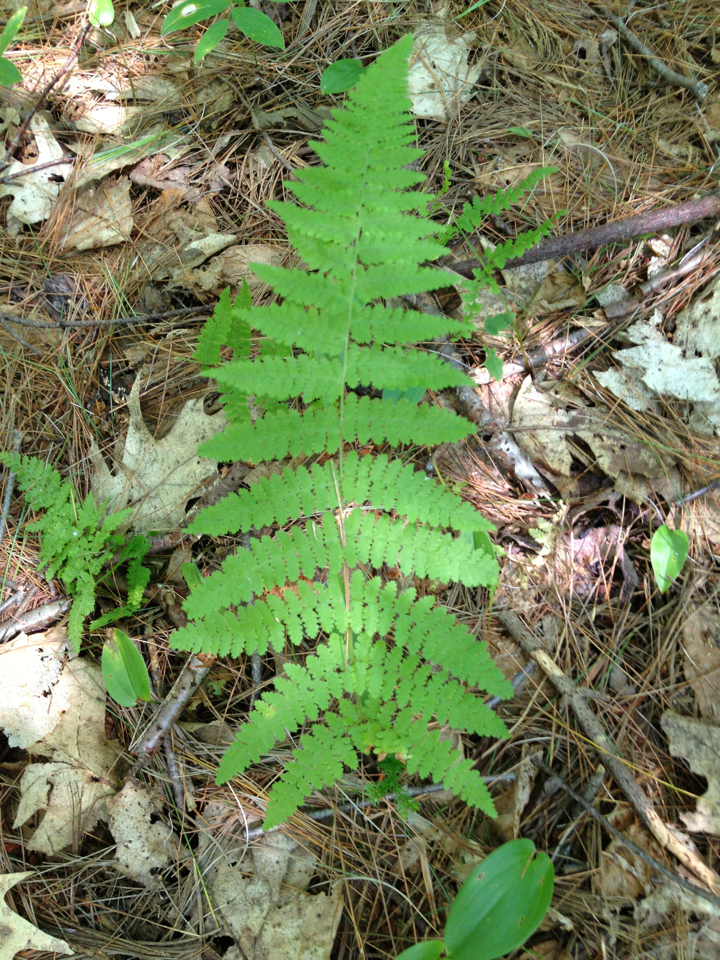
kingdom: Plantae
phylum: Tracheophyta
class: Polypodiopsida
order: Polypodiales
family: Dennstaedtiaceae
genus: Sitobolium
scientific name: Sitobolium punctilobum
